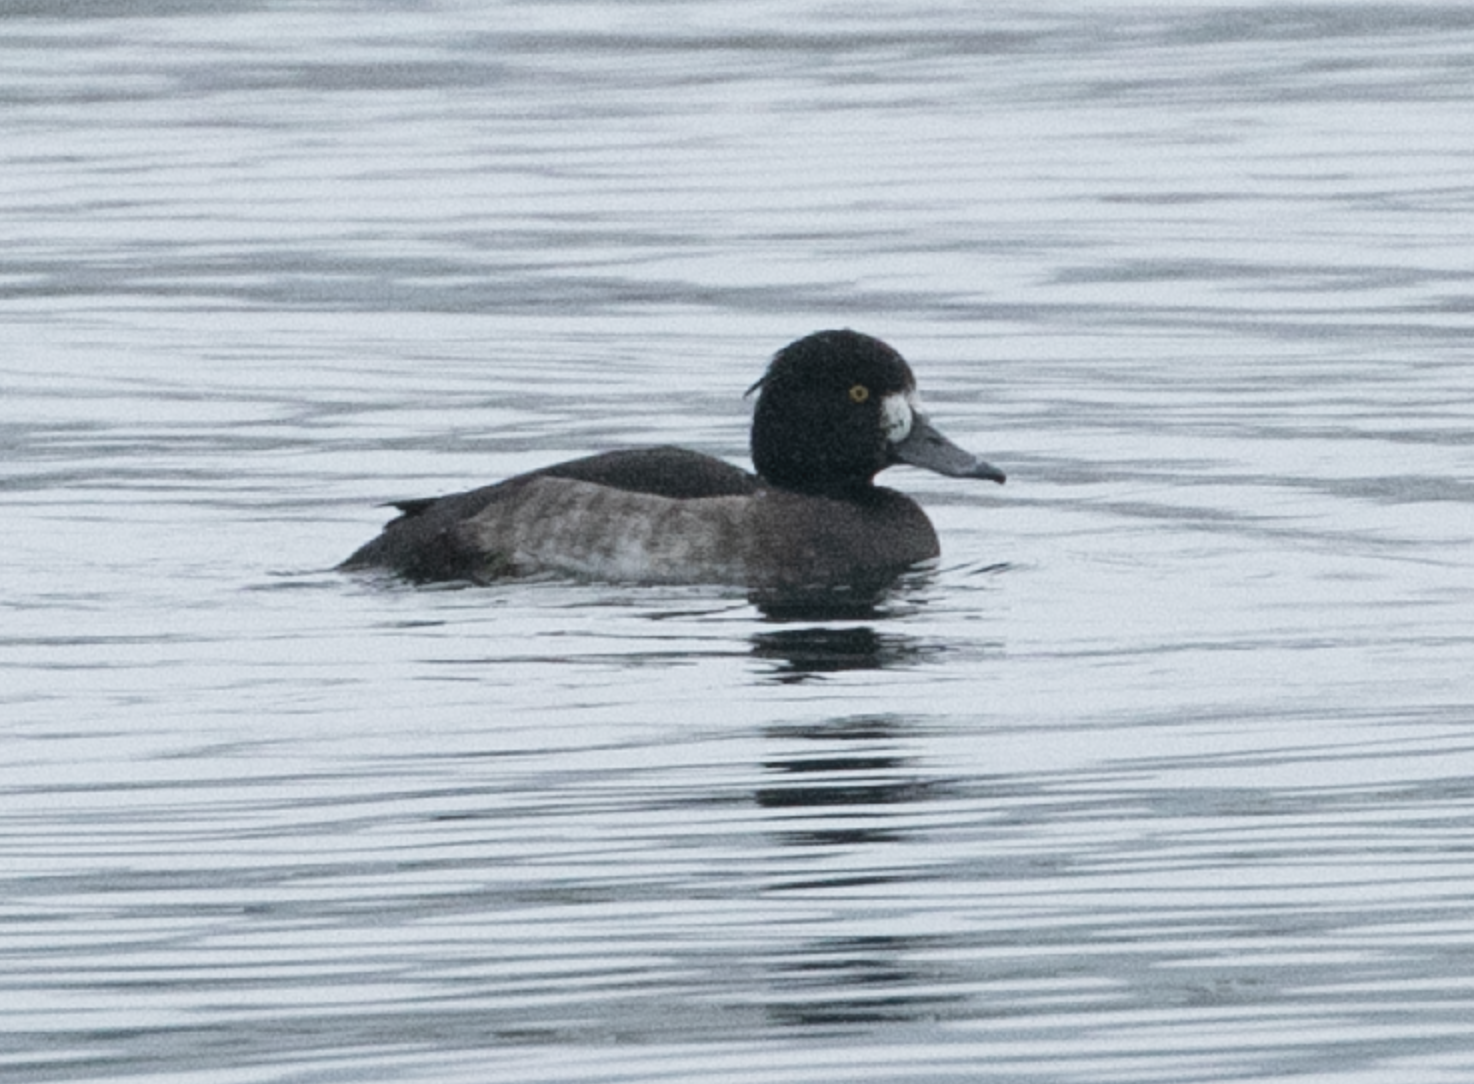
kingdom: Animalia
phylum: Chordata
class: Aves
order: Anseriformes
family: Anatidae
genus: Aythya
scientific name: Aythya fuligula
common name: Tufted duck
